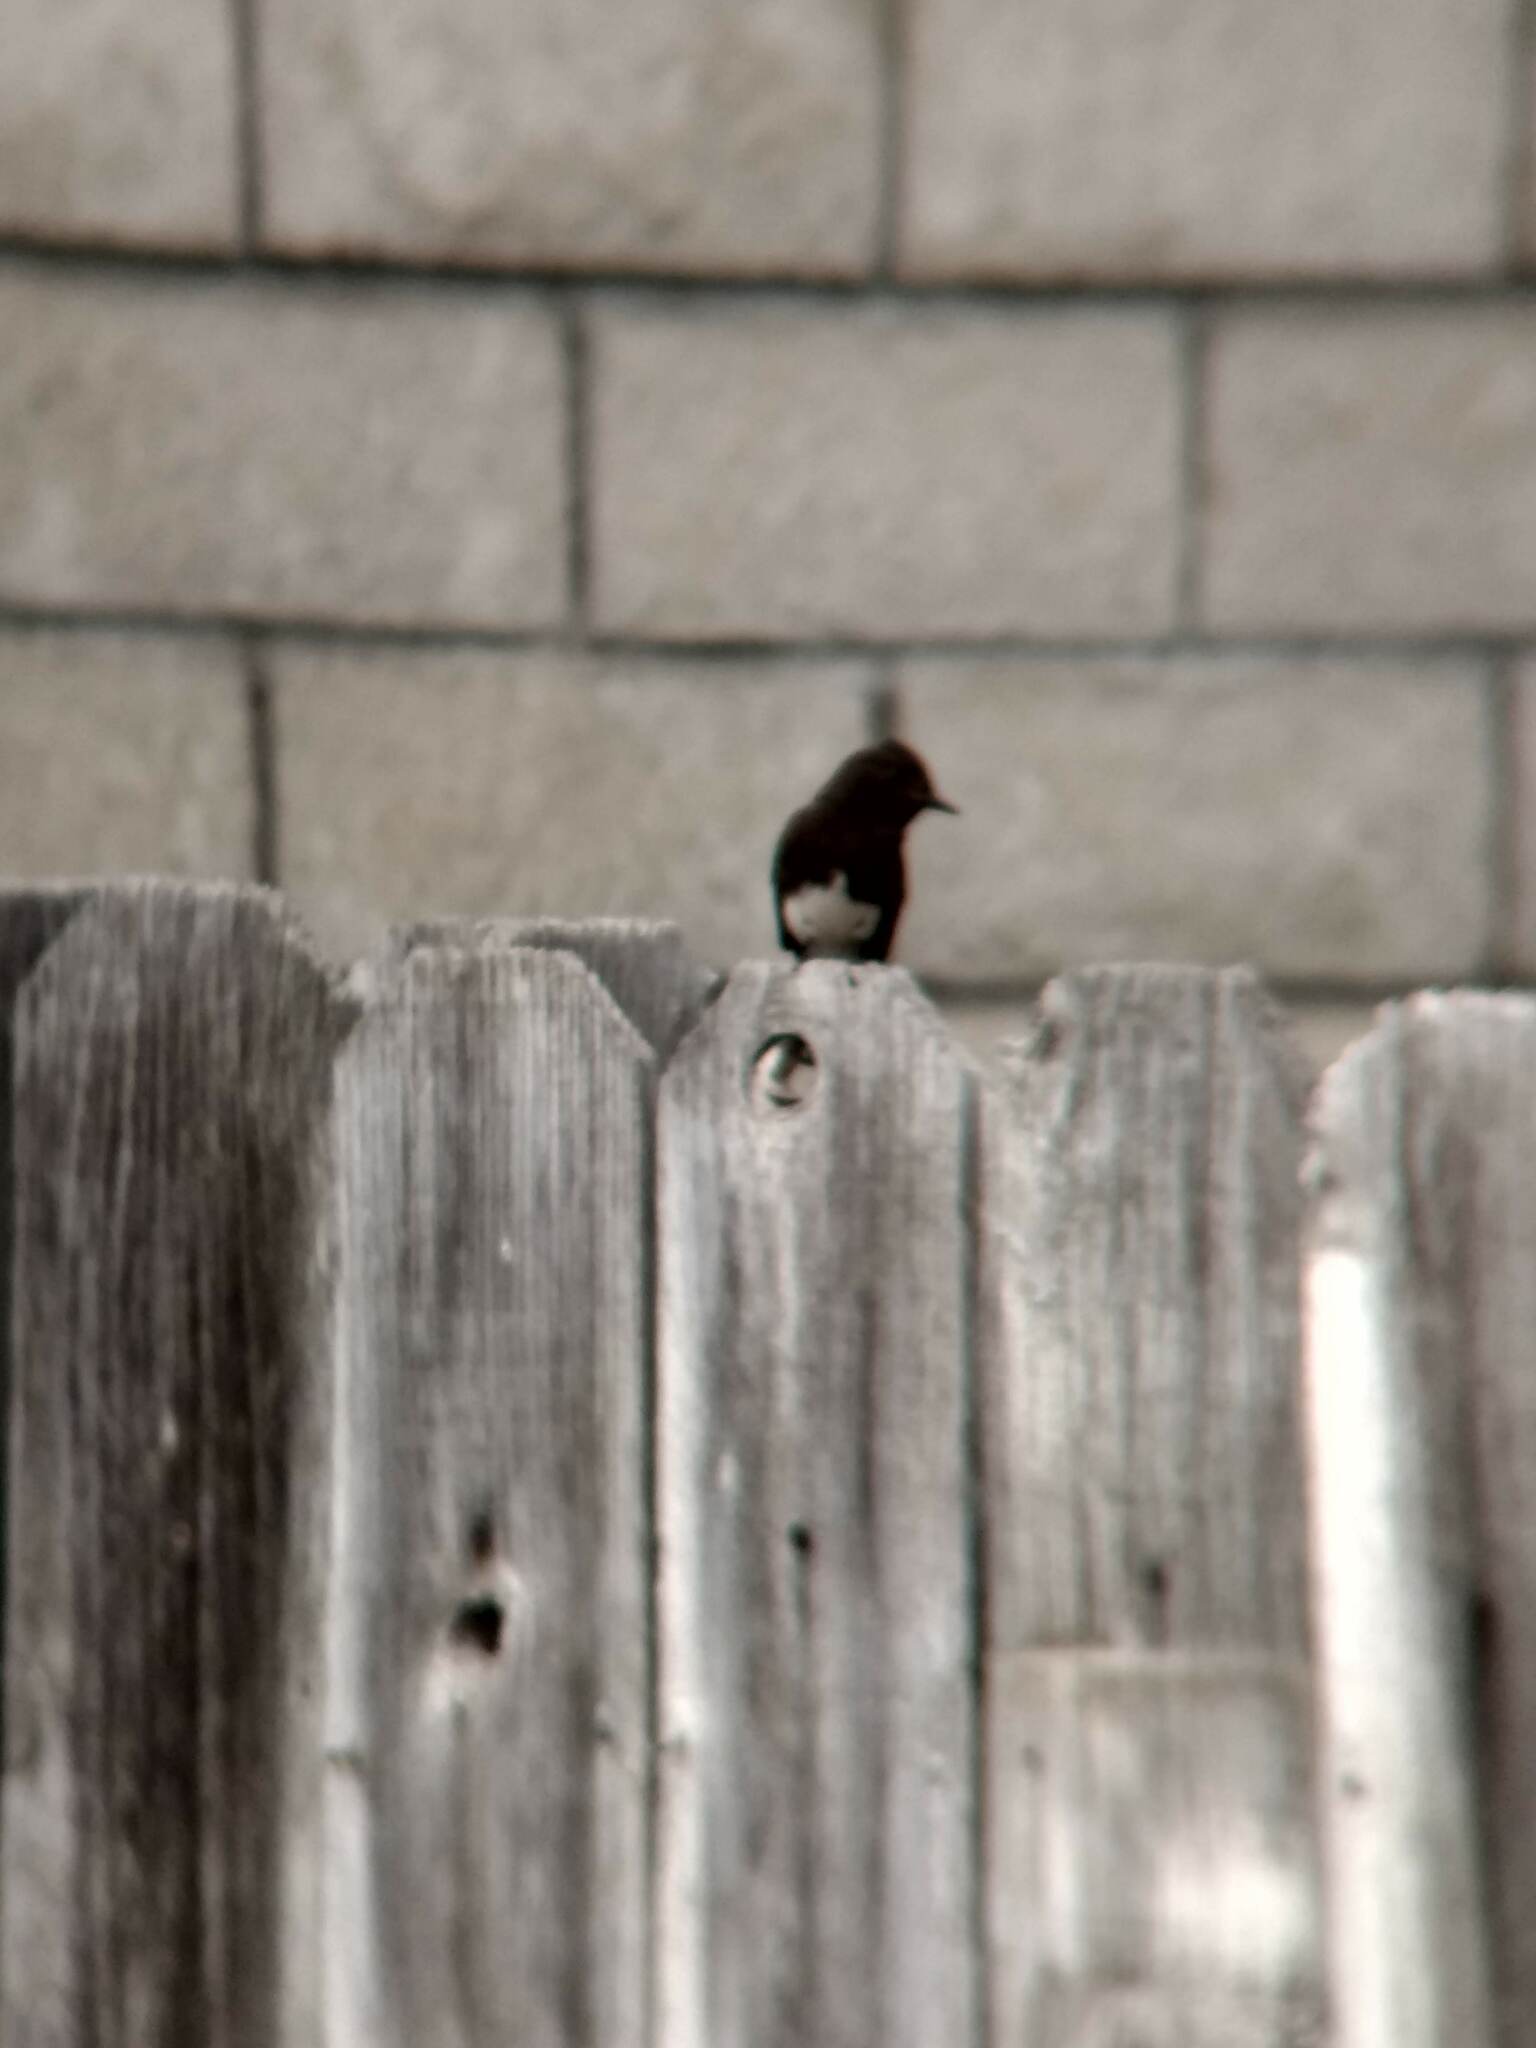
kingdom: Animalia
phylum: Chordata
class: Aves
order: Passeriformes
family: Tyrannidae
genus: Sayornis
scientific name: Sayornis nigricans
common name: Black phoebe
